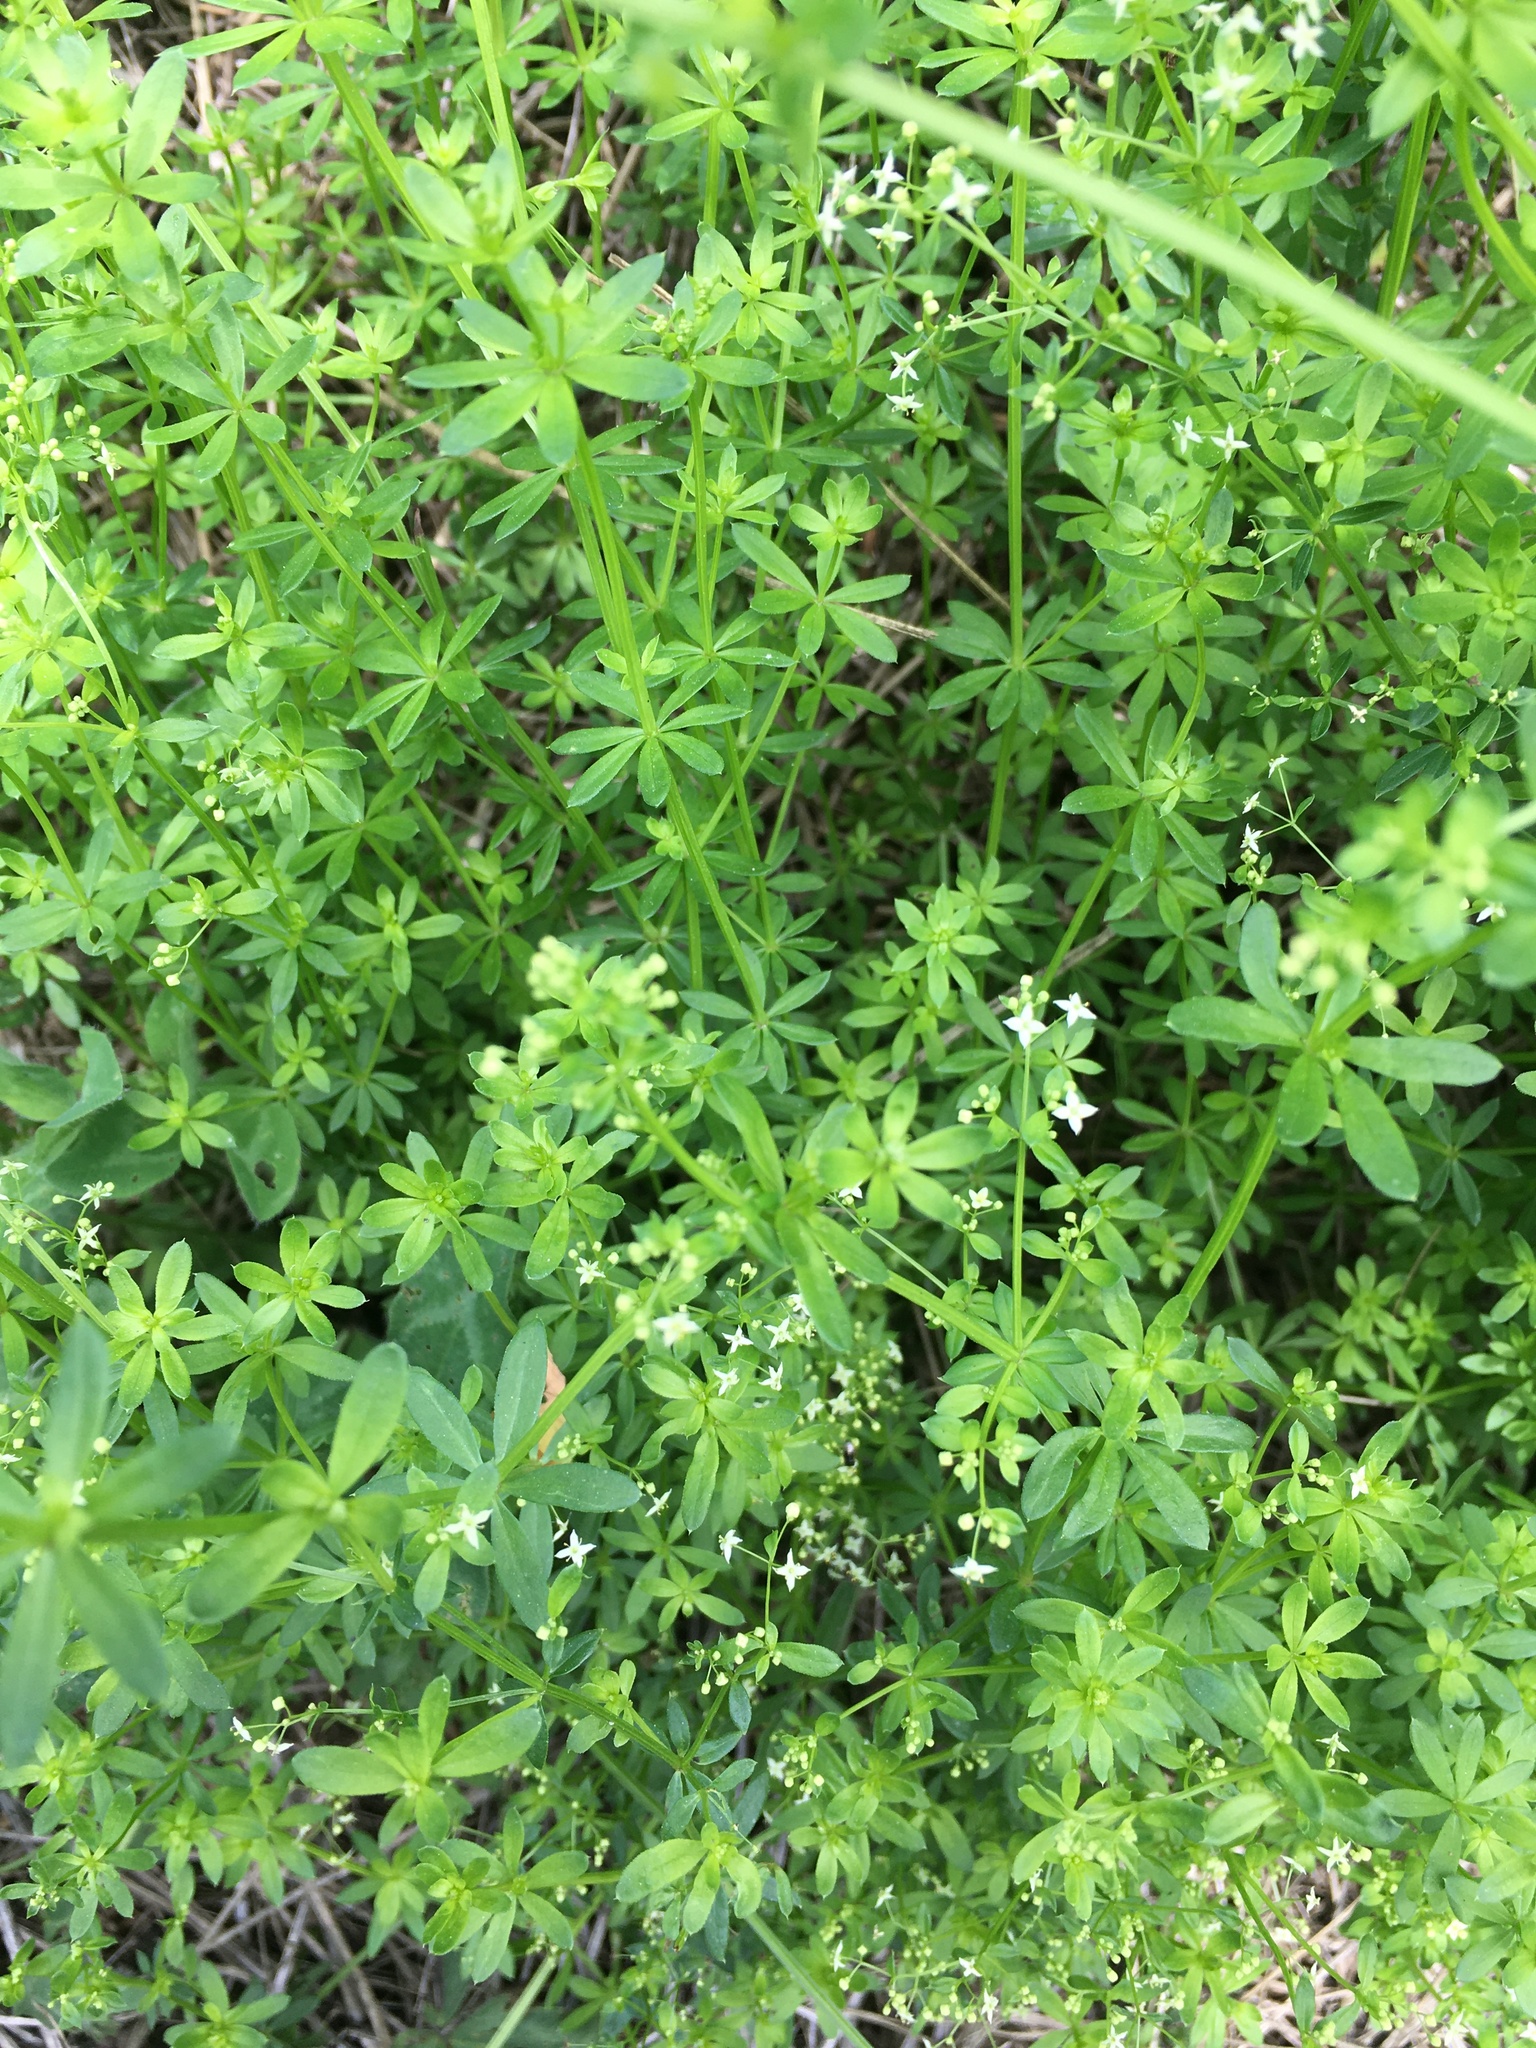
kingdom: Plantae
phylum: Tracheophyta
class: Magnoliopsida
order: Gentianales
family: Rubiaceae
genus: Galium
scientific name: Galium mollugo
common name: Hedge bedstraw
